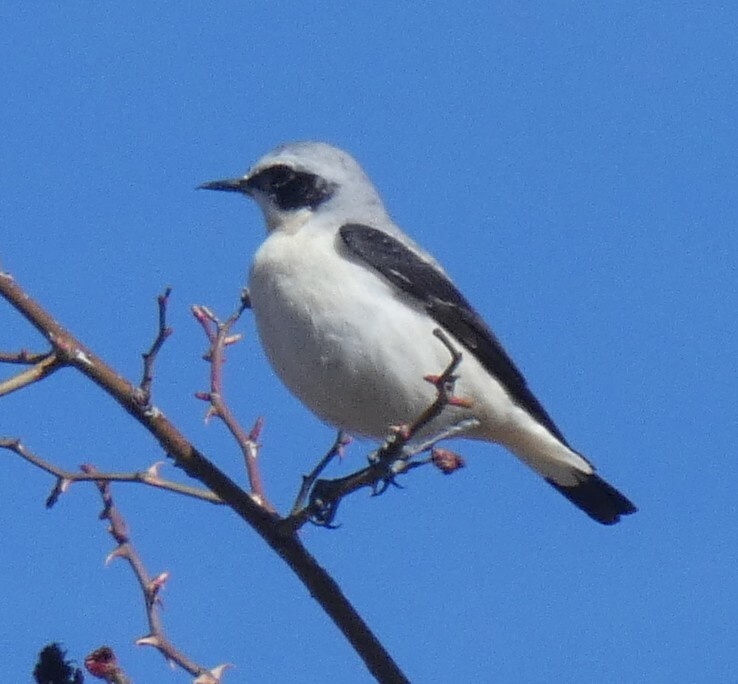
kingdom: Animalia
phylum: Chordata
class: Aves
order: Passeriformes
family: Muscicapidae
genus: Oenanthe
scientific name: Oenanthe oenanthe
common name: Northern wheatear
